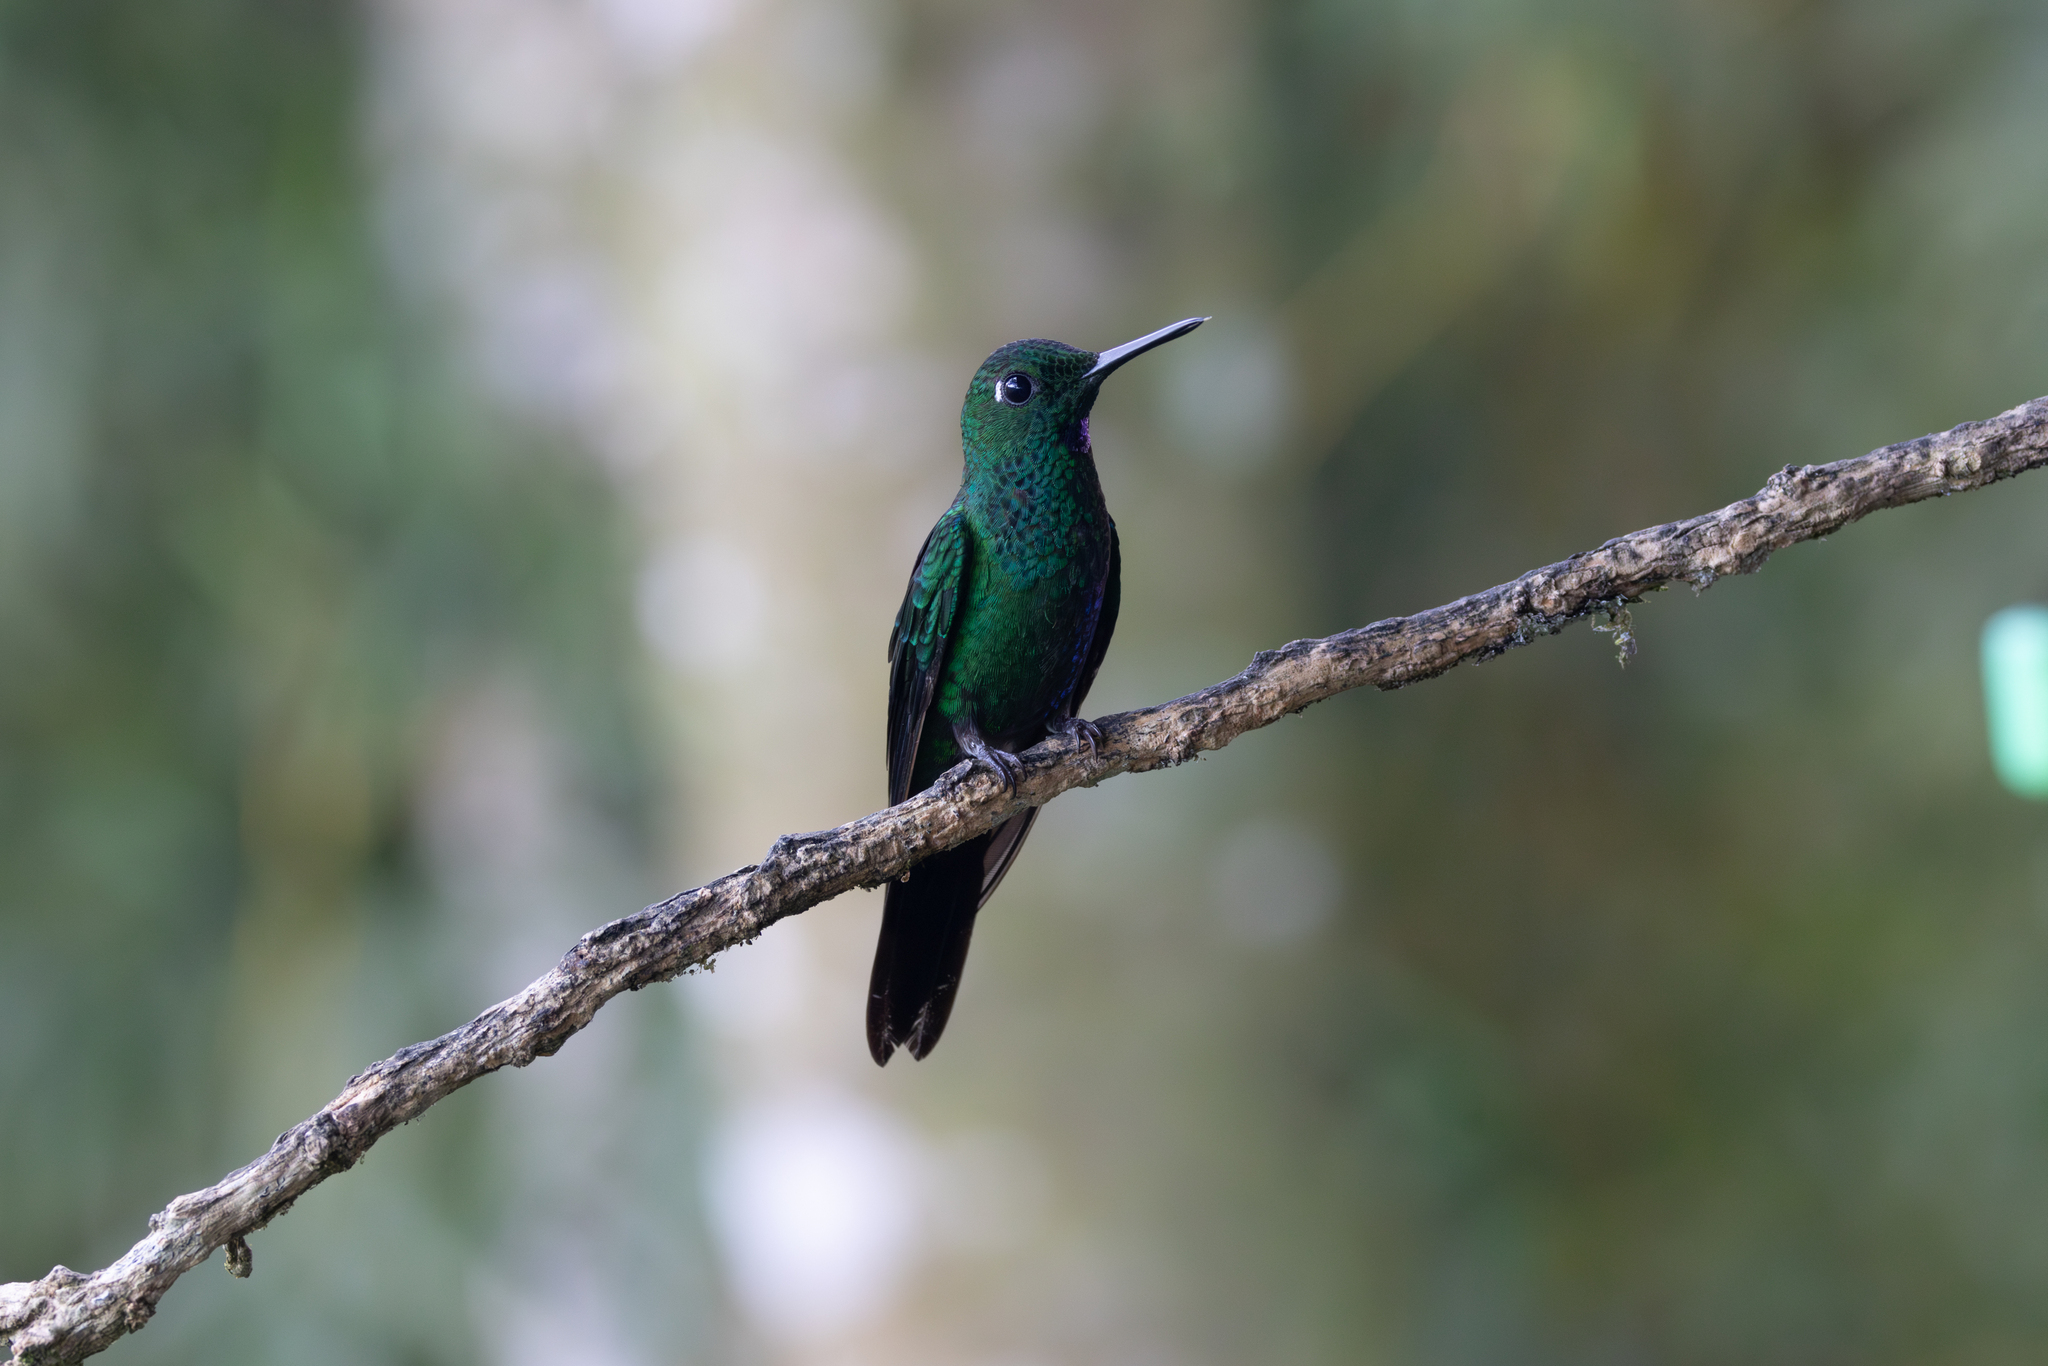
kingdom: Animalia
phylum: Chordata
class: Aves
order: Apodiformes
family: Trochilidae
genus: Heliodoxa
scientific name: Heliodoxa jacula
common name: Green-crowned brilliant
